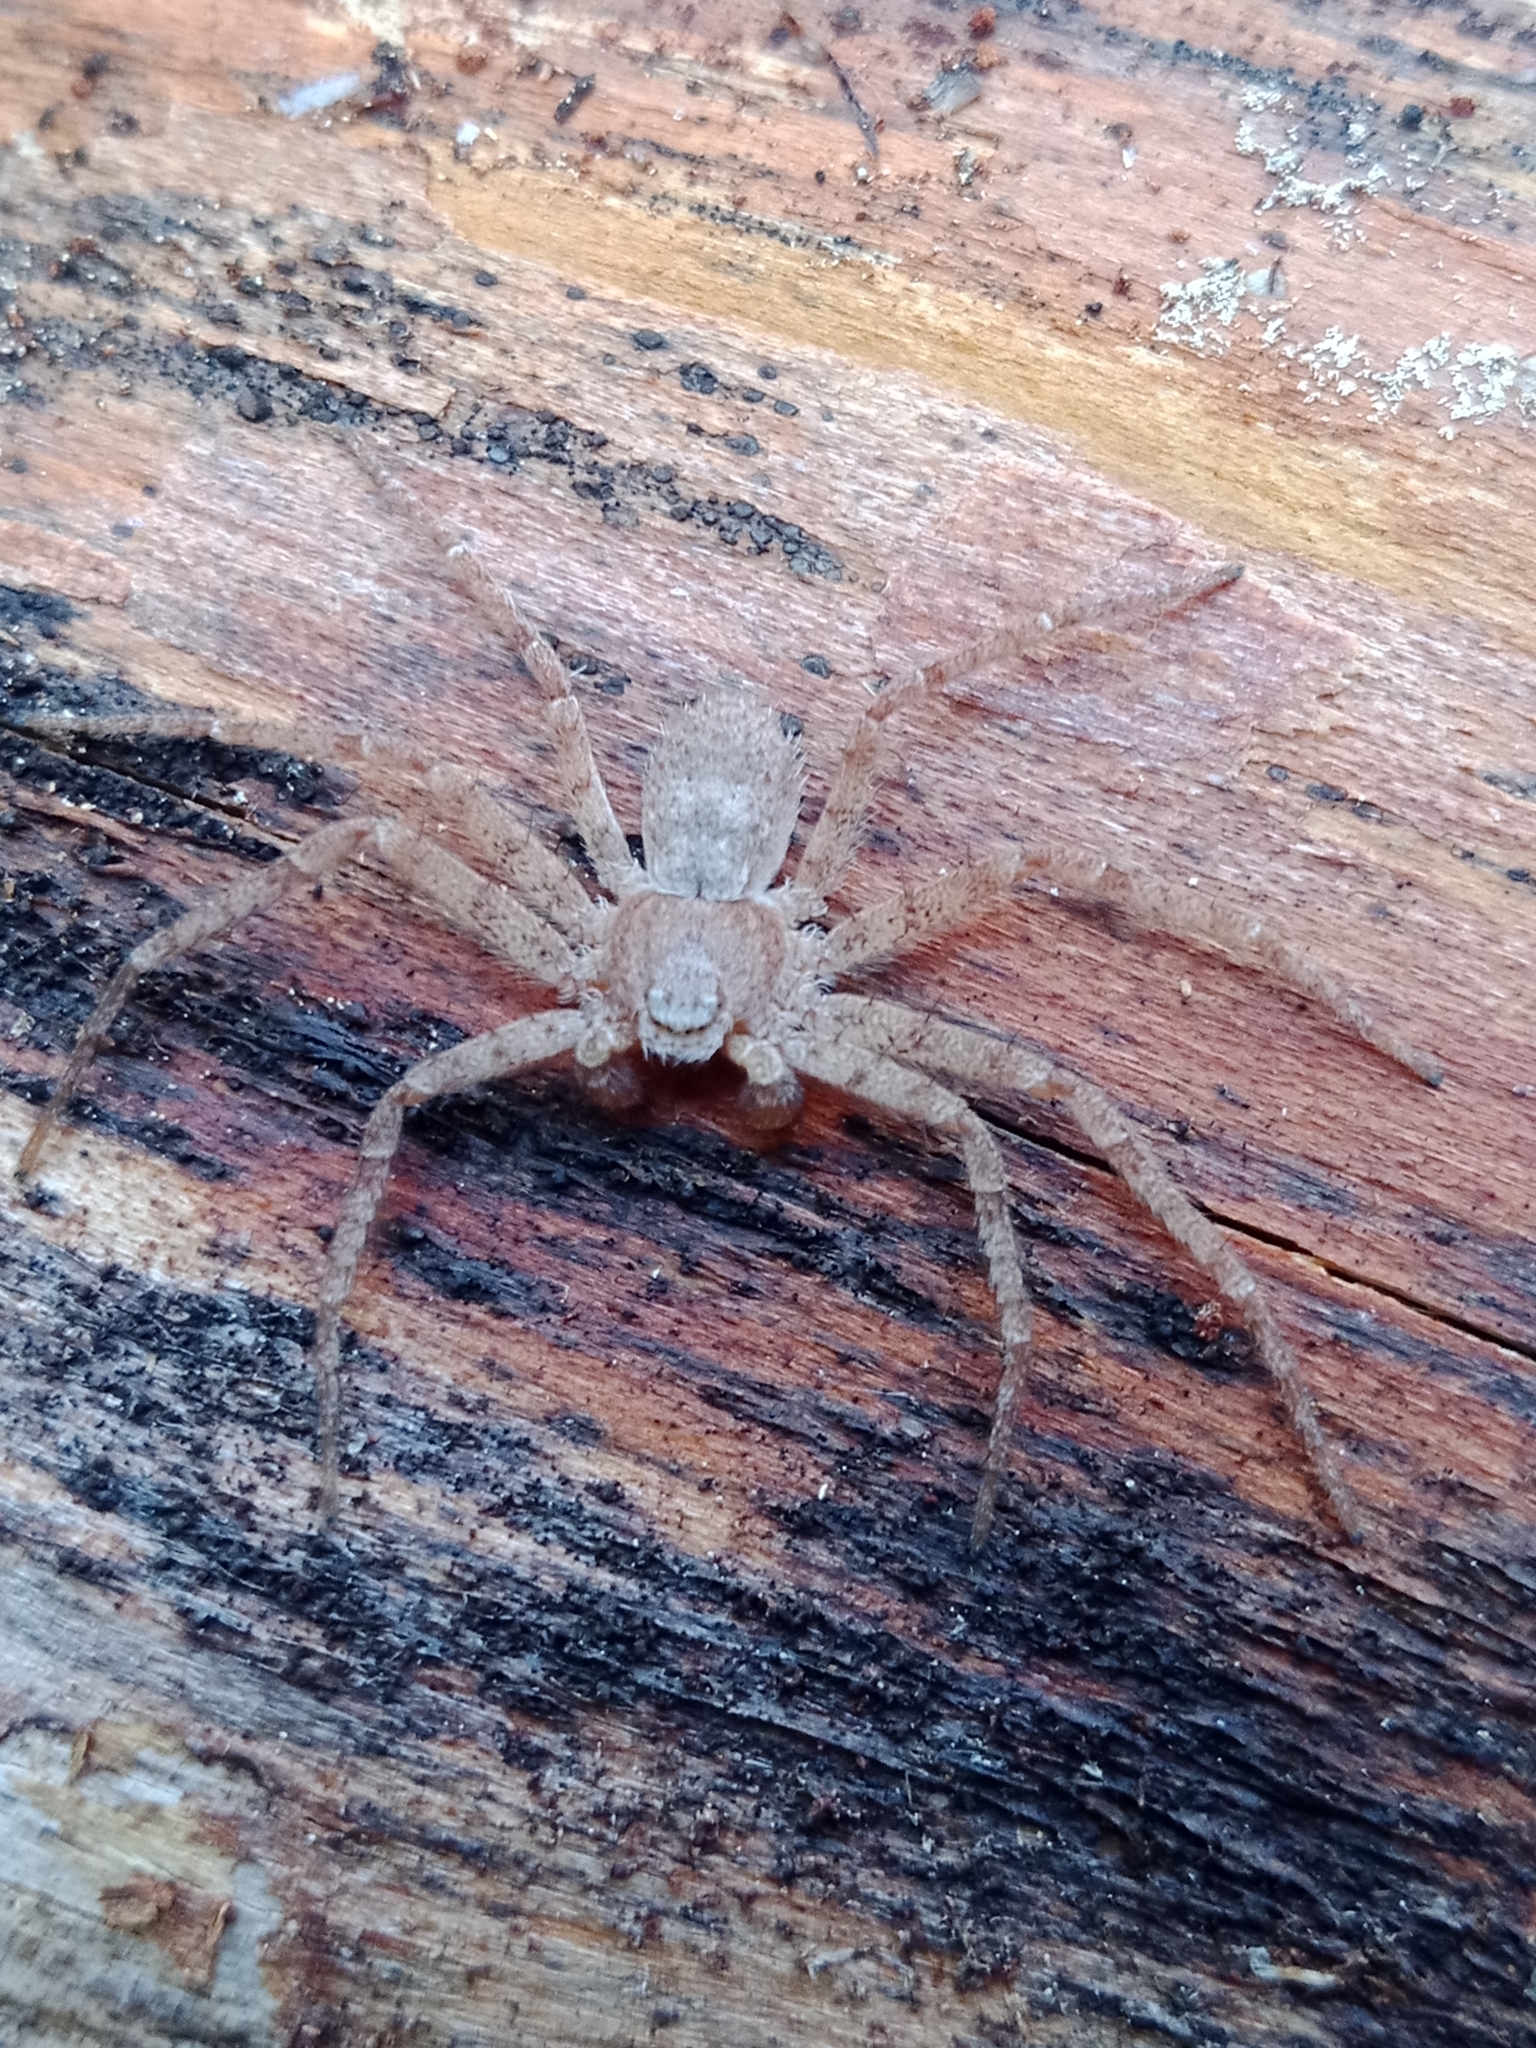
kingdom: Animalia
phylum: Arthropoda
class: Arachnida
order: Araneae
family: Philodromidae
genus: Philodromus
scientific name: Philodromus fuscomarginatus
